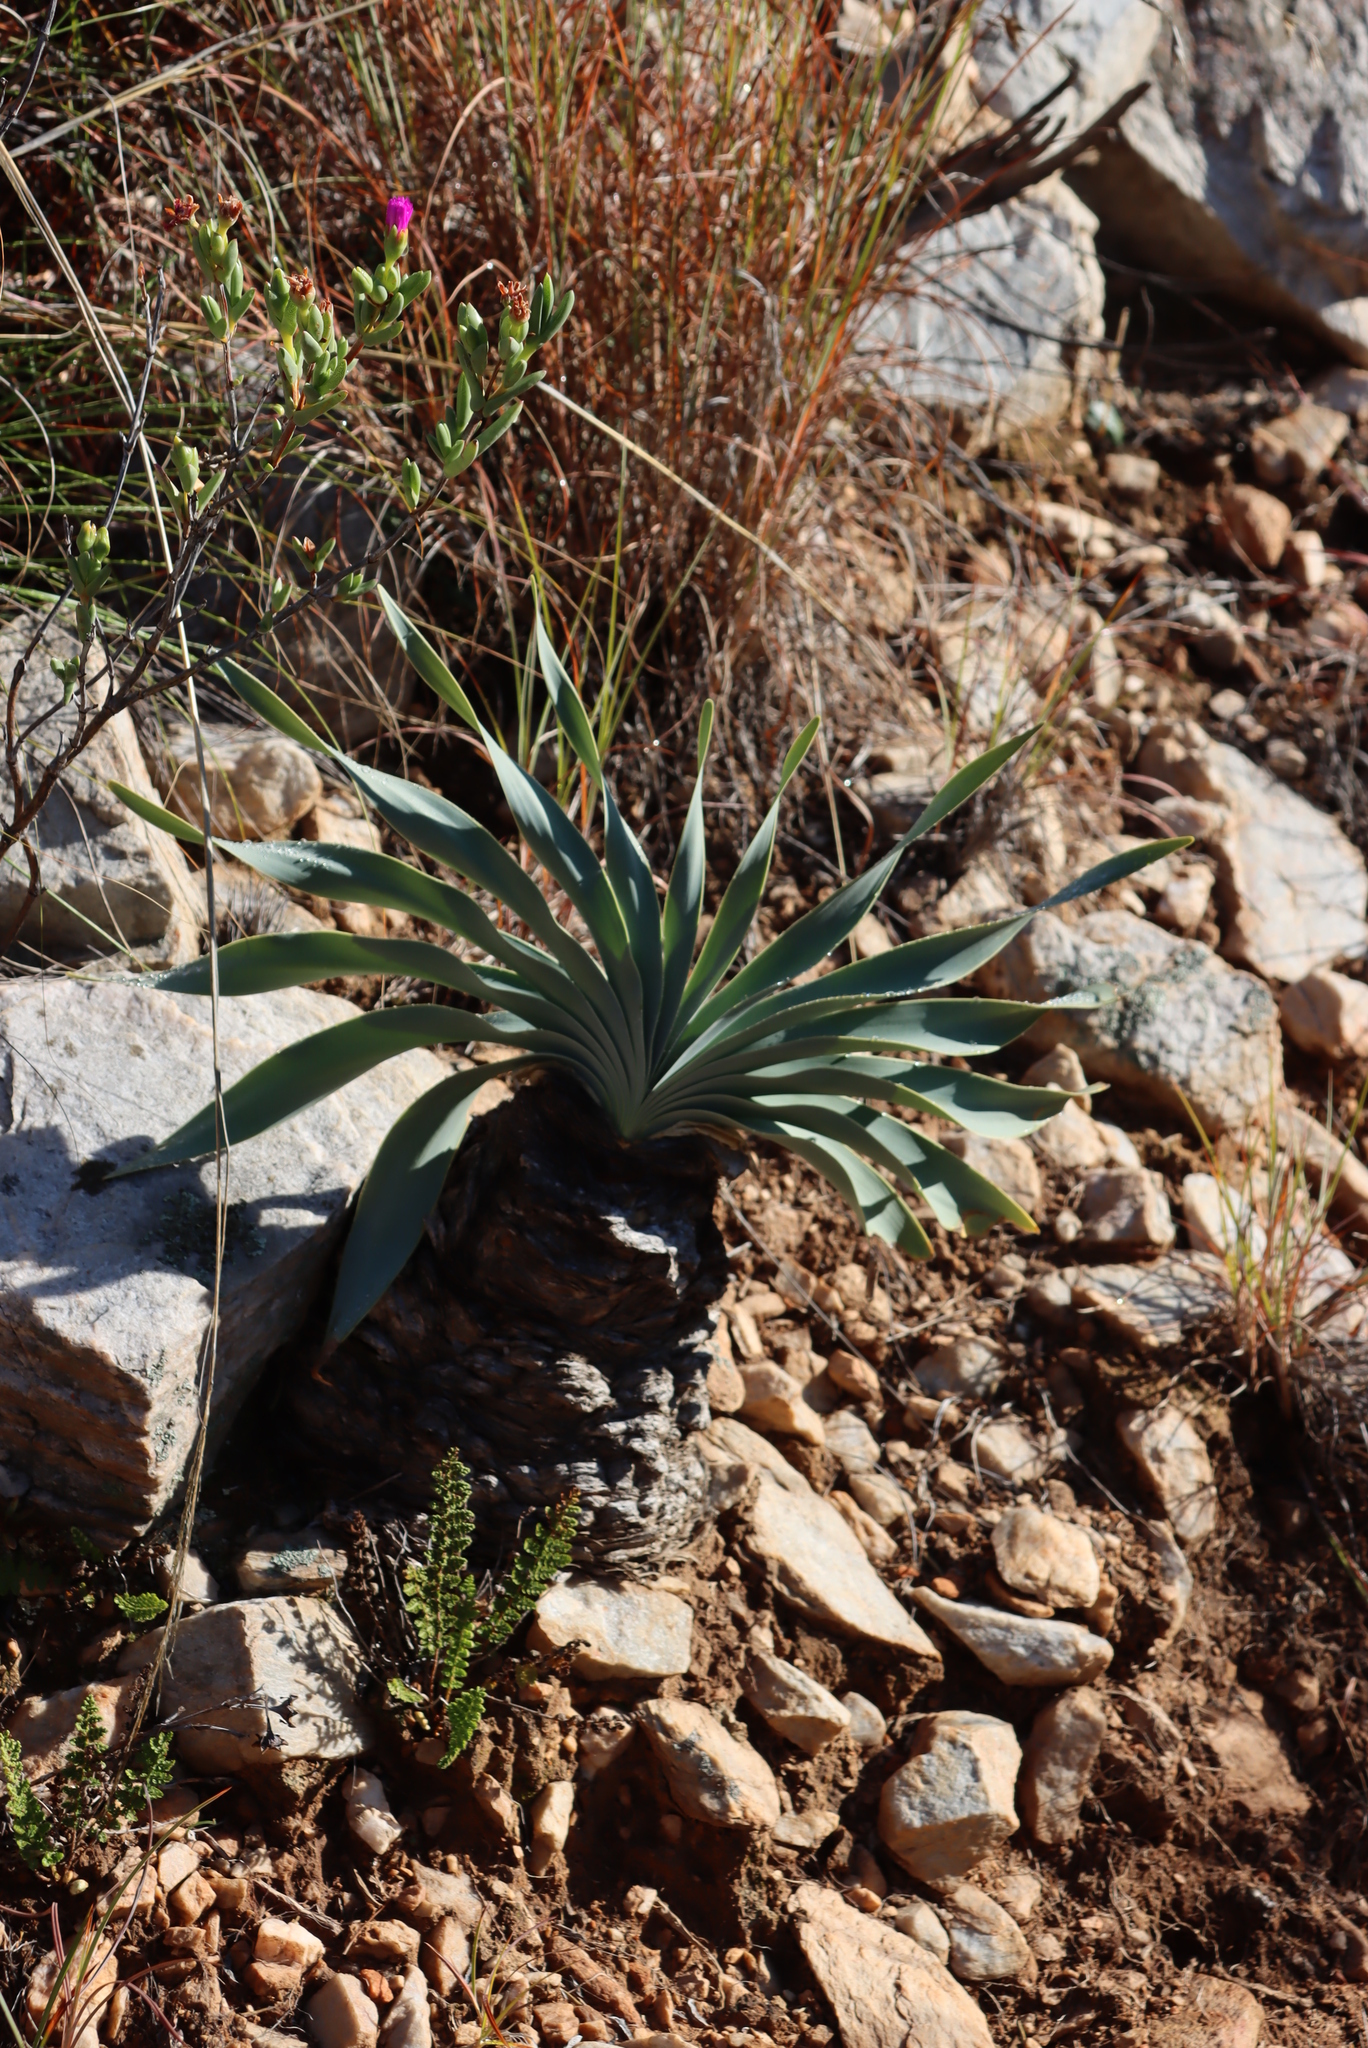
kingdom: Plantae
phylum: Tracheophyta
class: Liliopsida
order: Asparagales
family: Amaryllidaceae
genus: Boophone
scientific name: Boophone disticha
